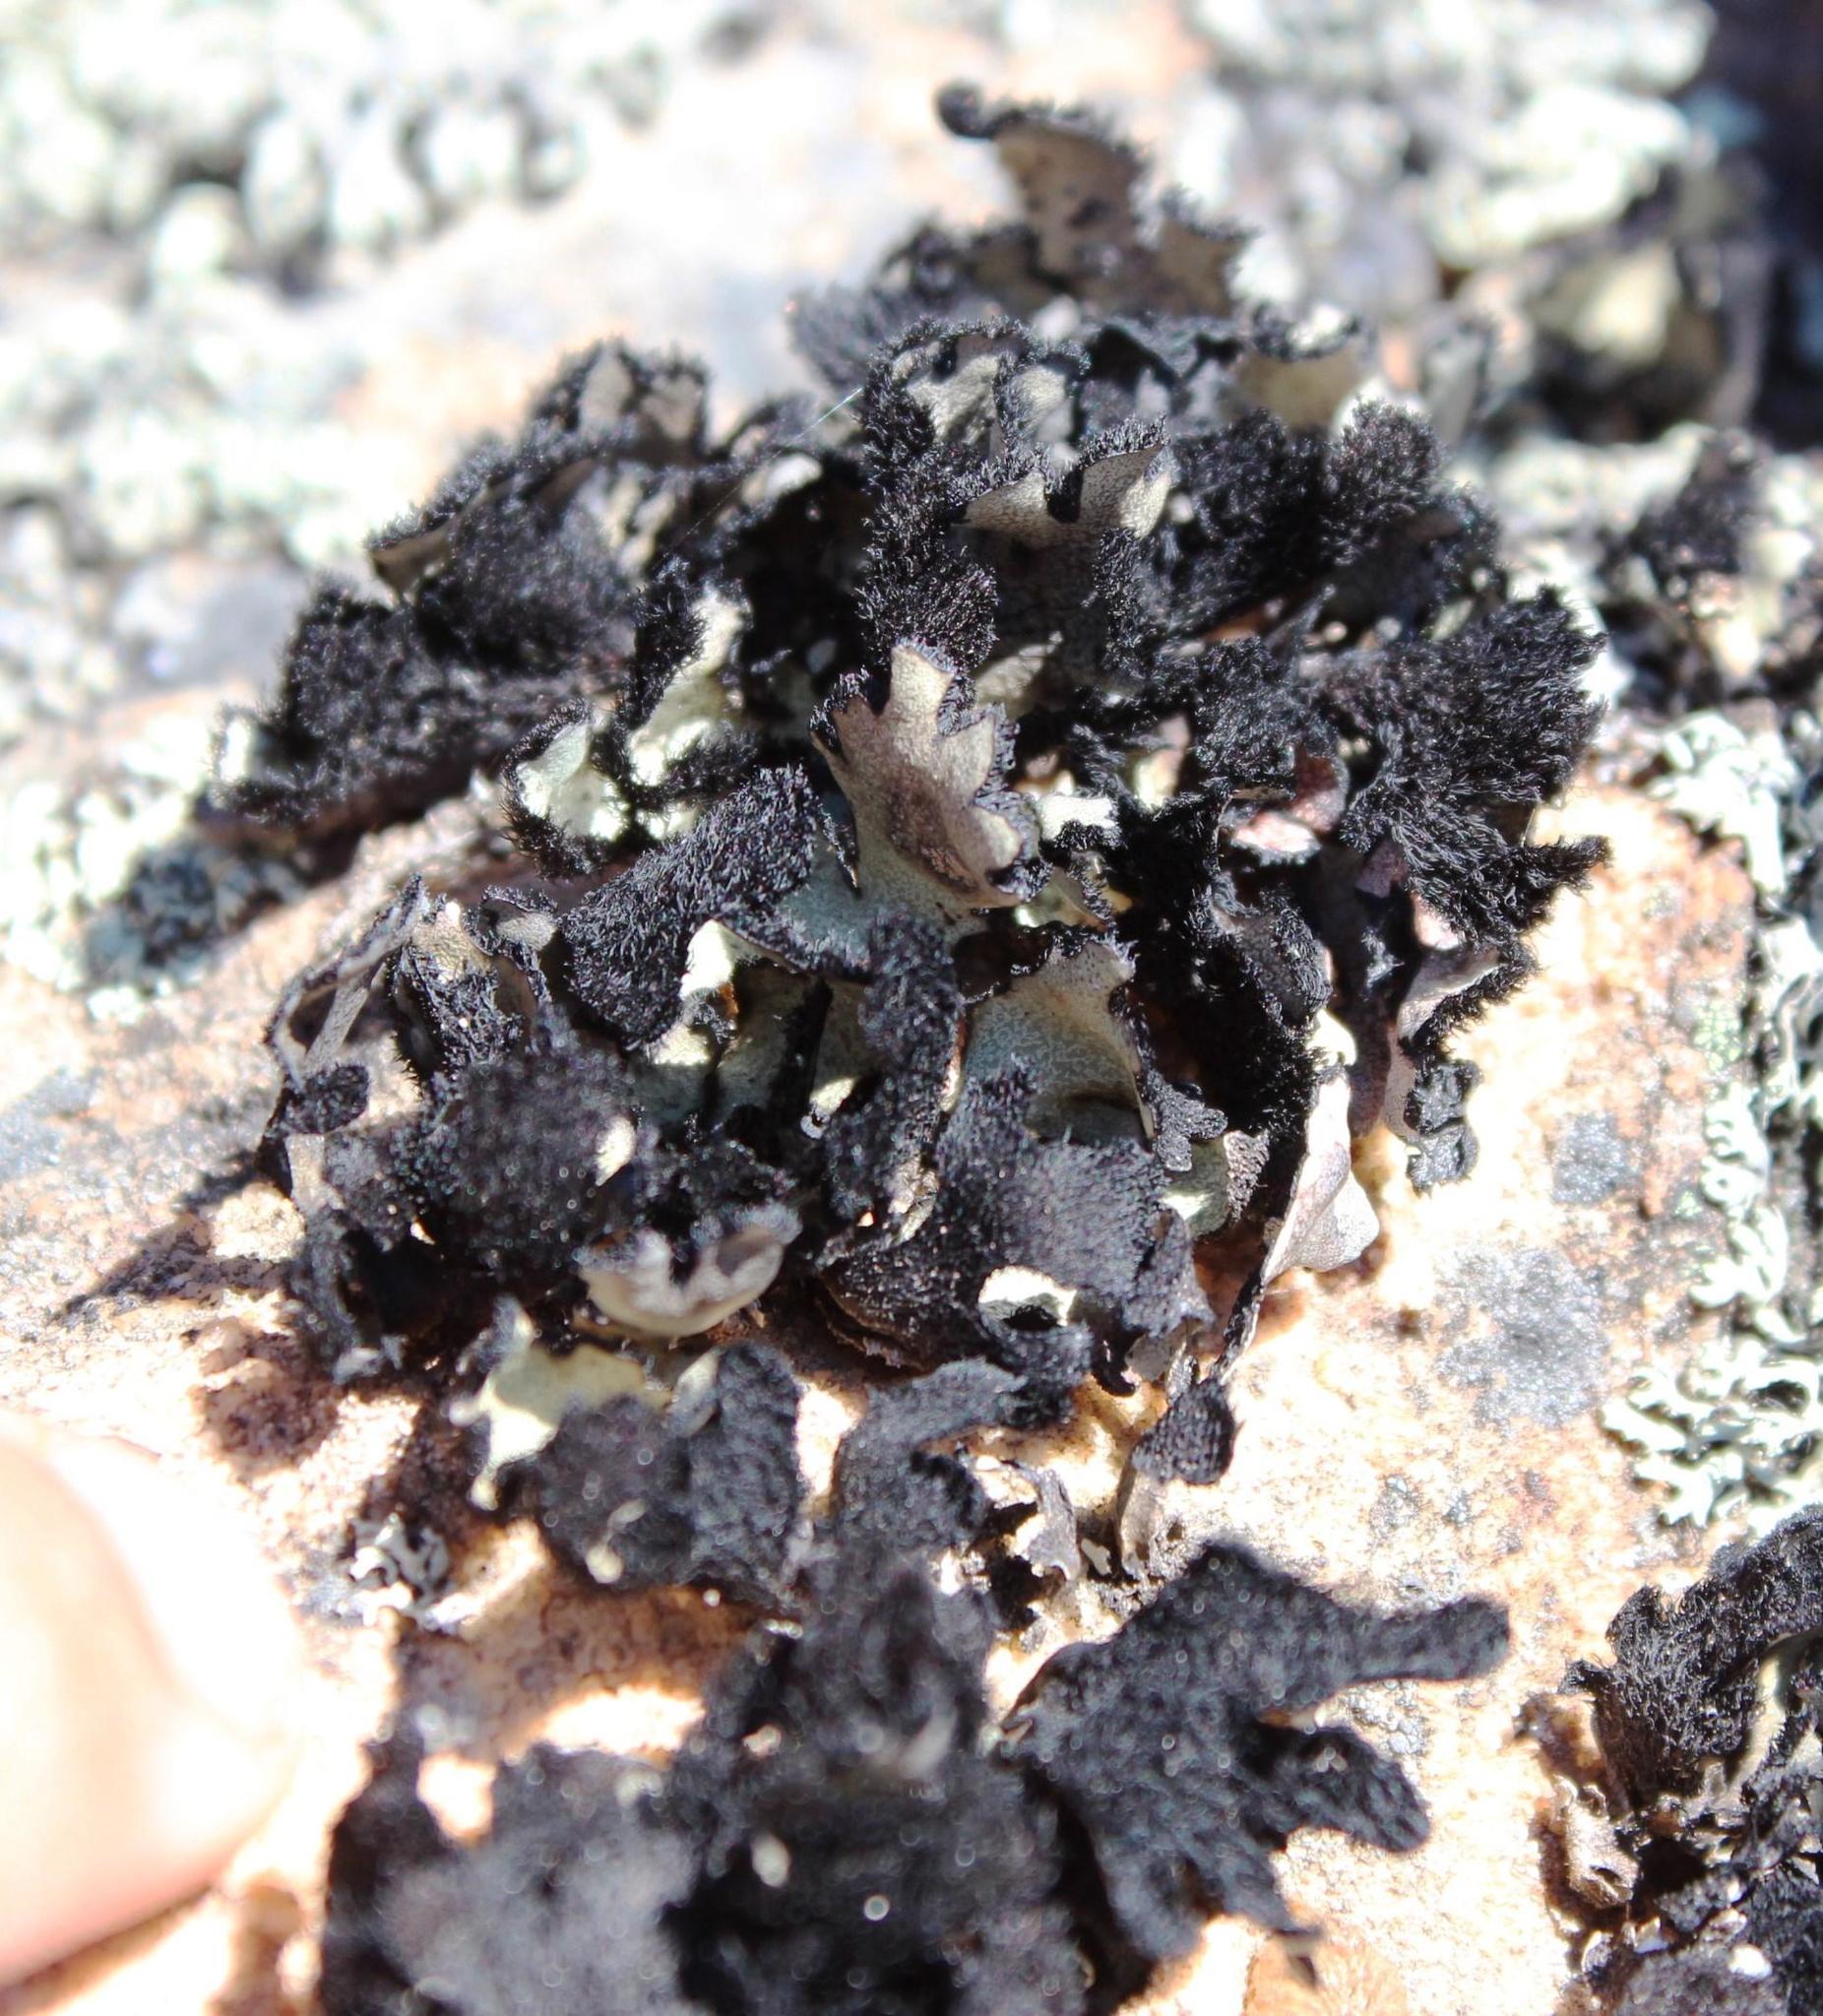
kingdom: Fungi
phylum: Ascomycota
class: Lecanoromycetes
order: Lecanorales
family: Parmeliaceae
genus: Xanthoparmelia
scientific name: Xanthoparmelia hottentotta
